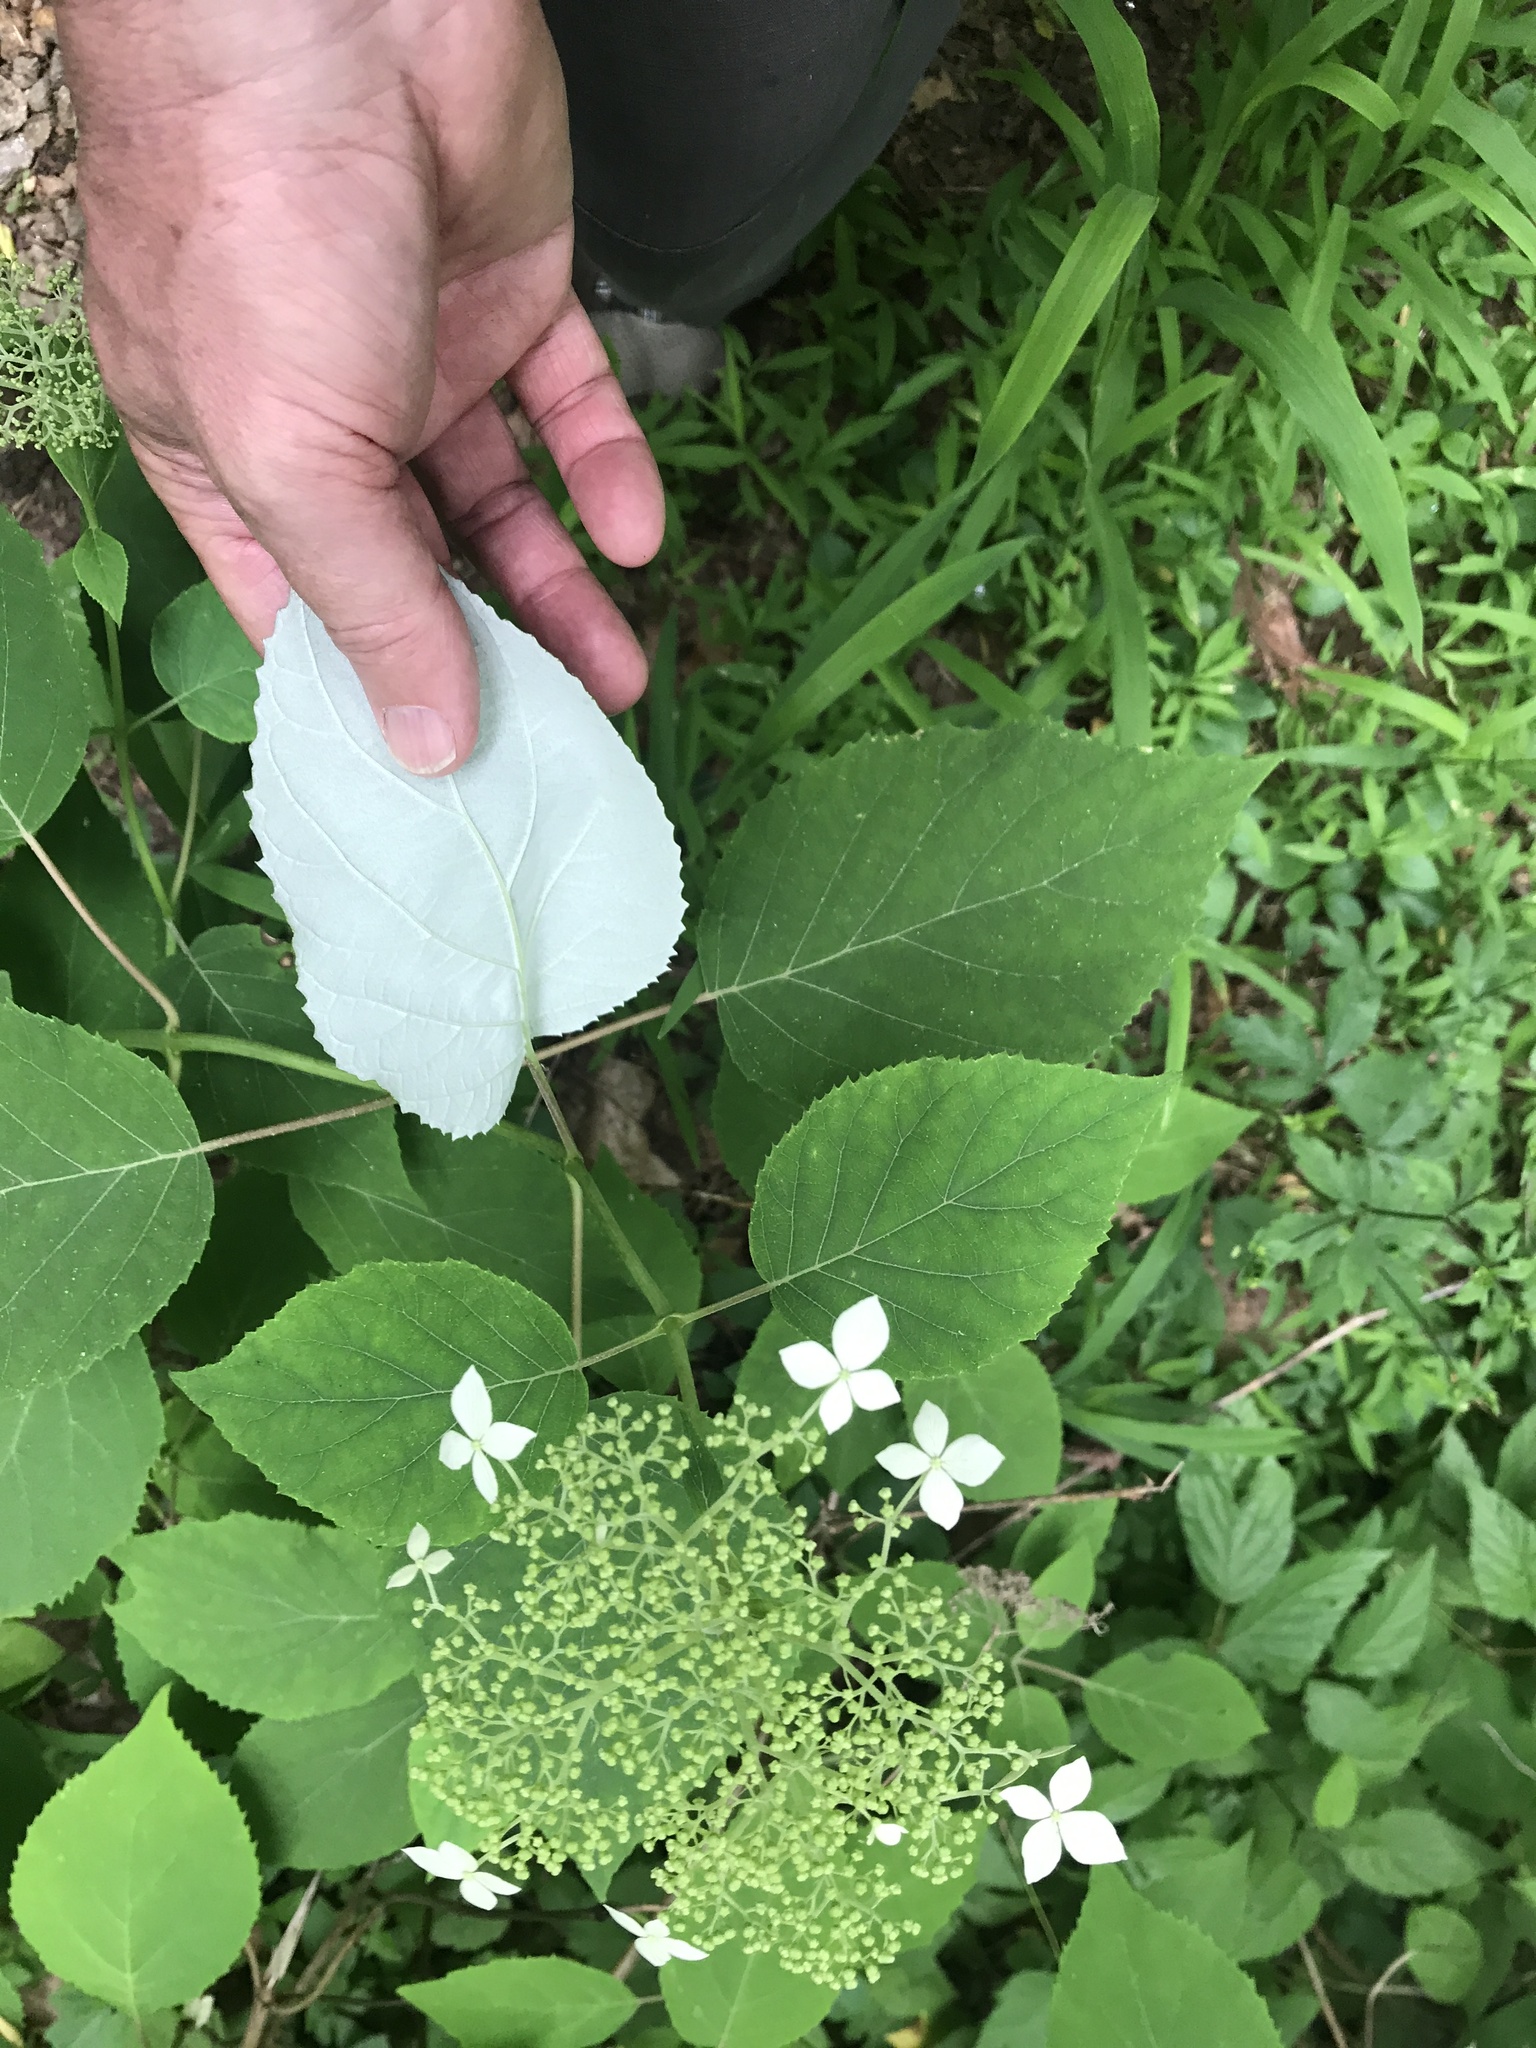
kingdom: Plantae
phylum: Tracheophyta
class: Magnoliopsida
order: Cornales
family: Hydrangeaceae
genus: Hydrangea
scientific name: Hydrangea arborescens
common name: Sevenbark
